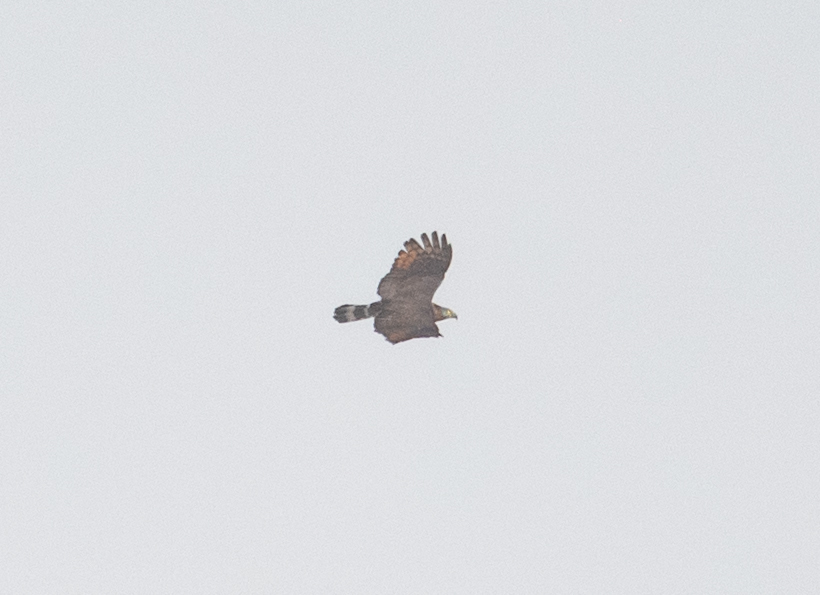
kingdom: Animalia
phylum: Chordata
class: Aves
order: Accipitriformes
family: Accipitridae
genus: Chondrohierax
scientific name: Chondrohierax uncinatus
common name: Hook-billed kite
